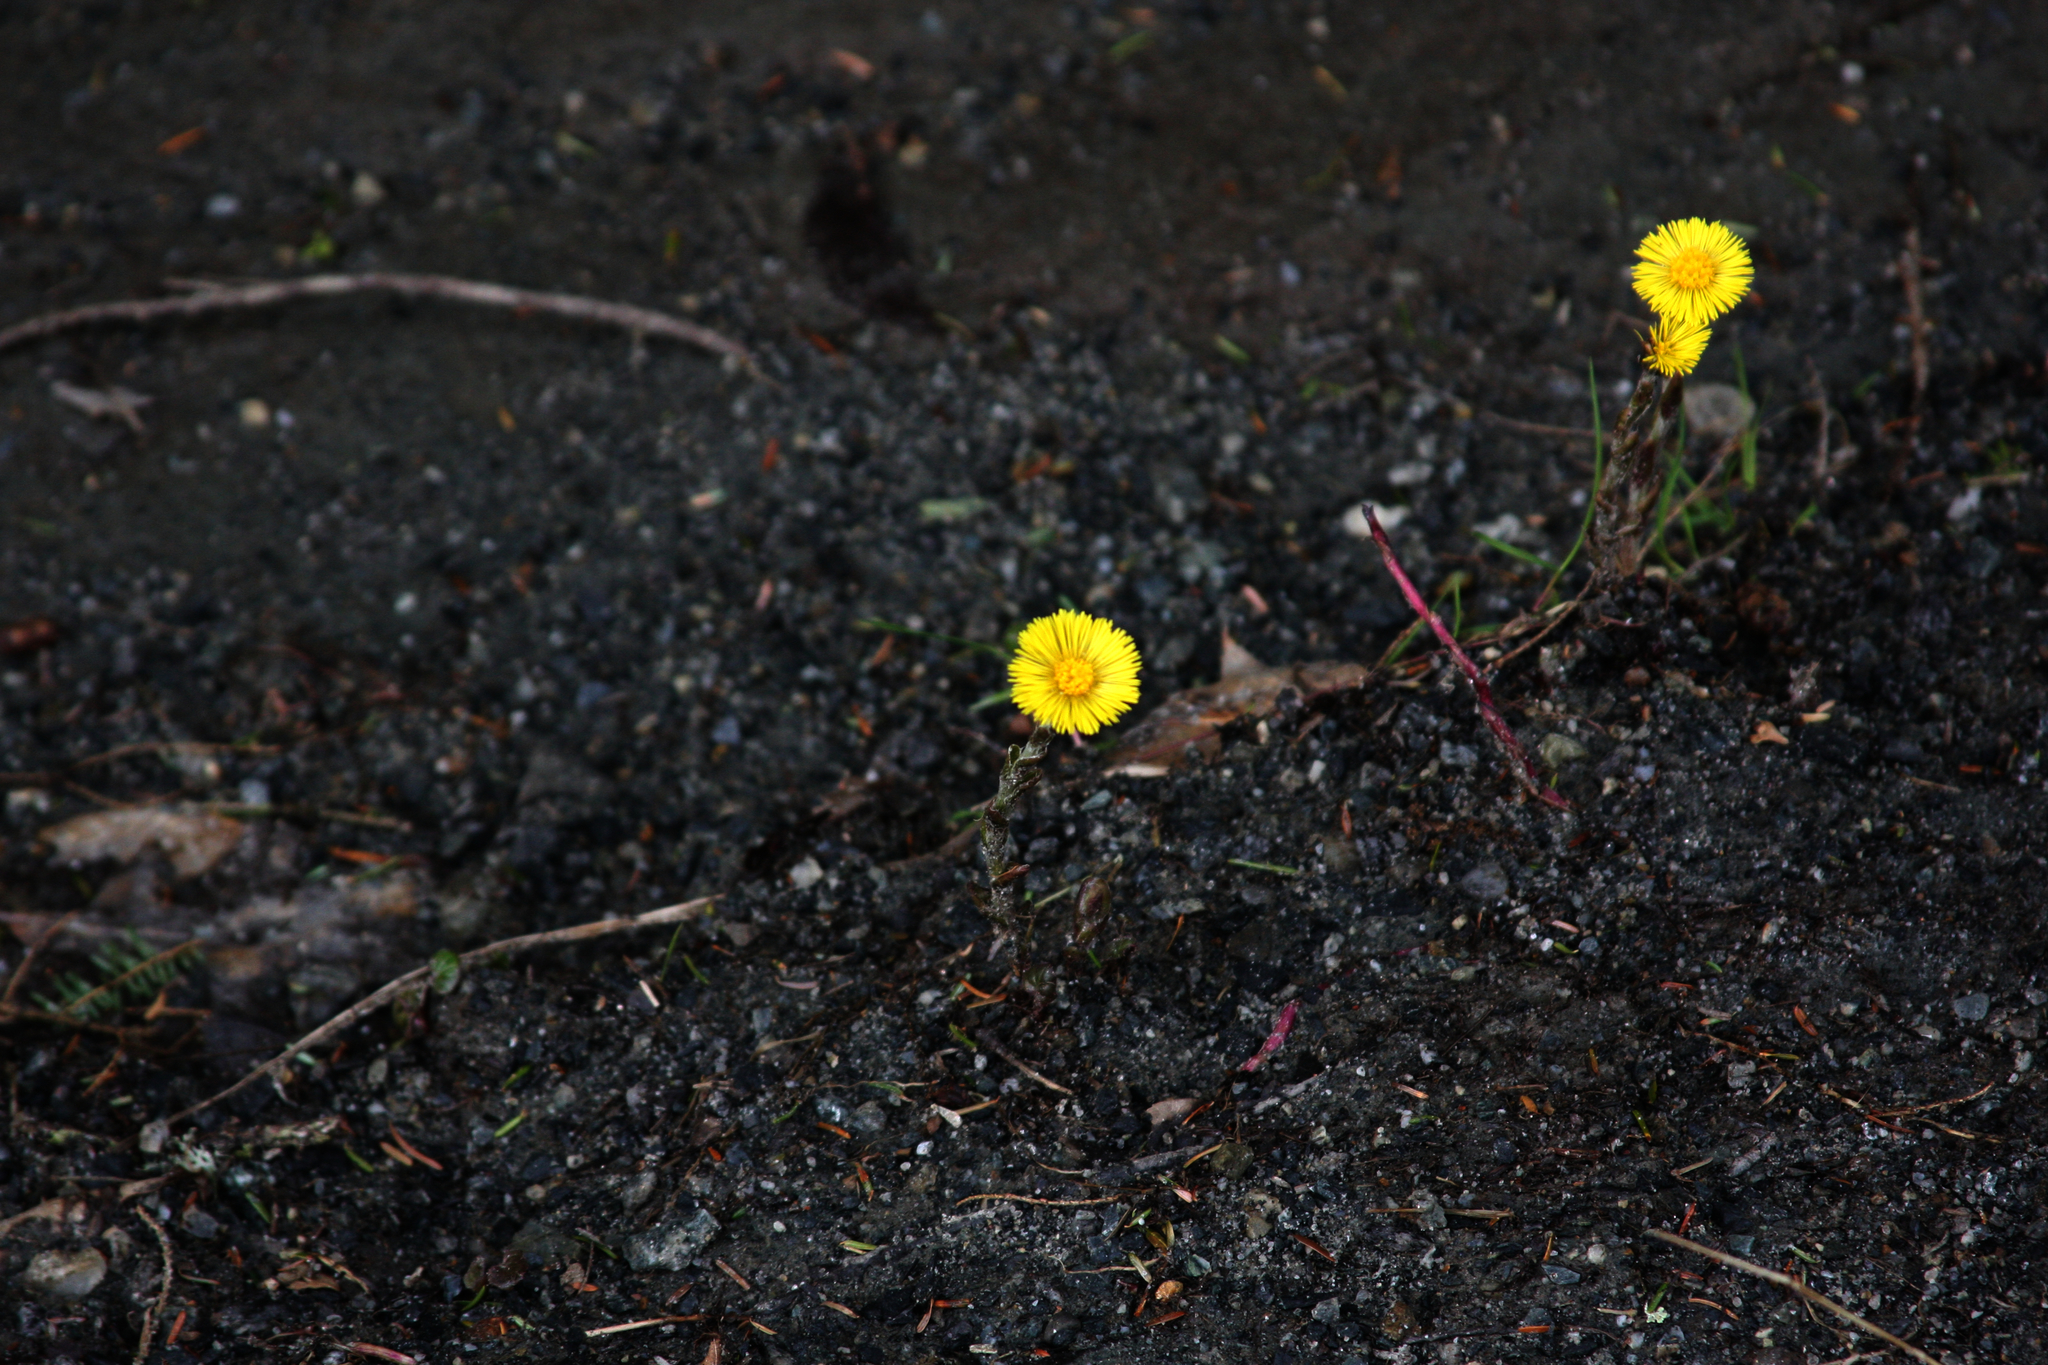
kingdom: Plantae
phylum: Tracheophyta
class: Magnoliopsida
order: Asterales
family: Asteraceae
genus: Tussilago
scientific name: Tussilago farfara
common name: Coltsfoot
